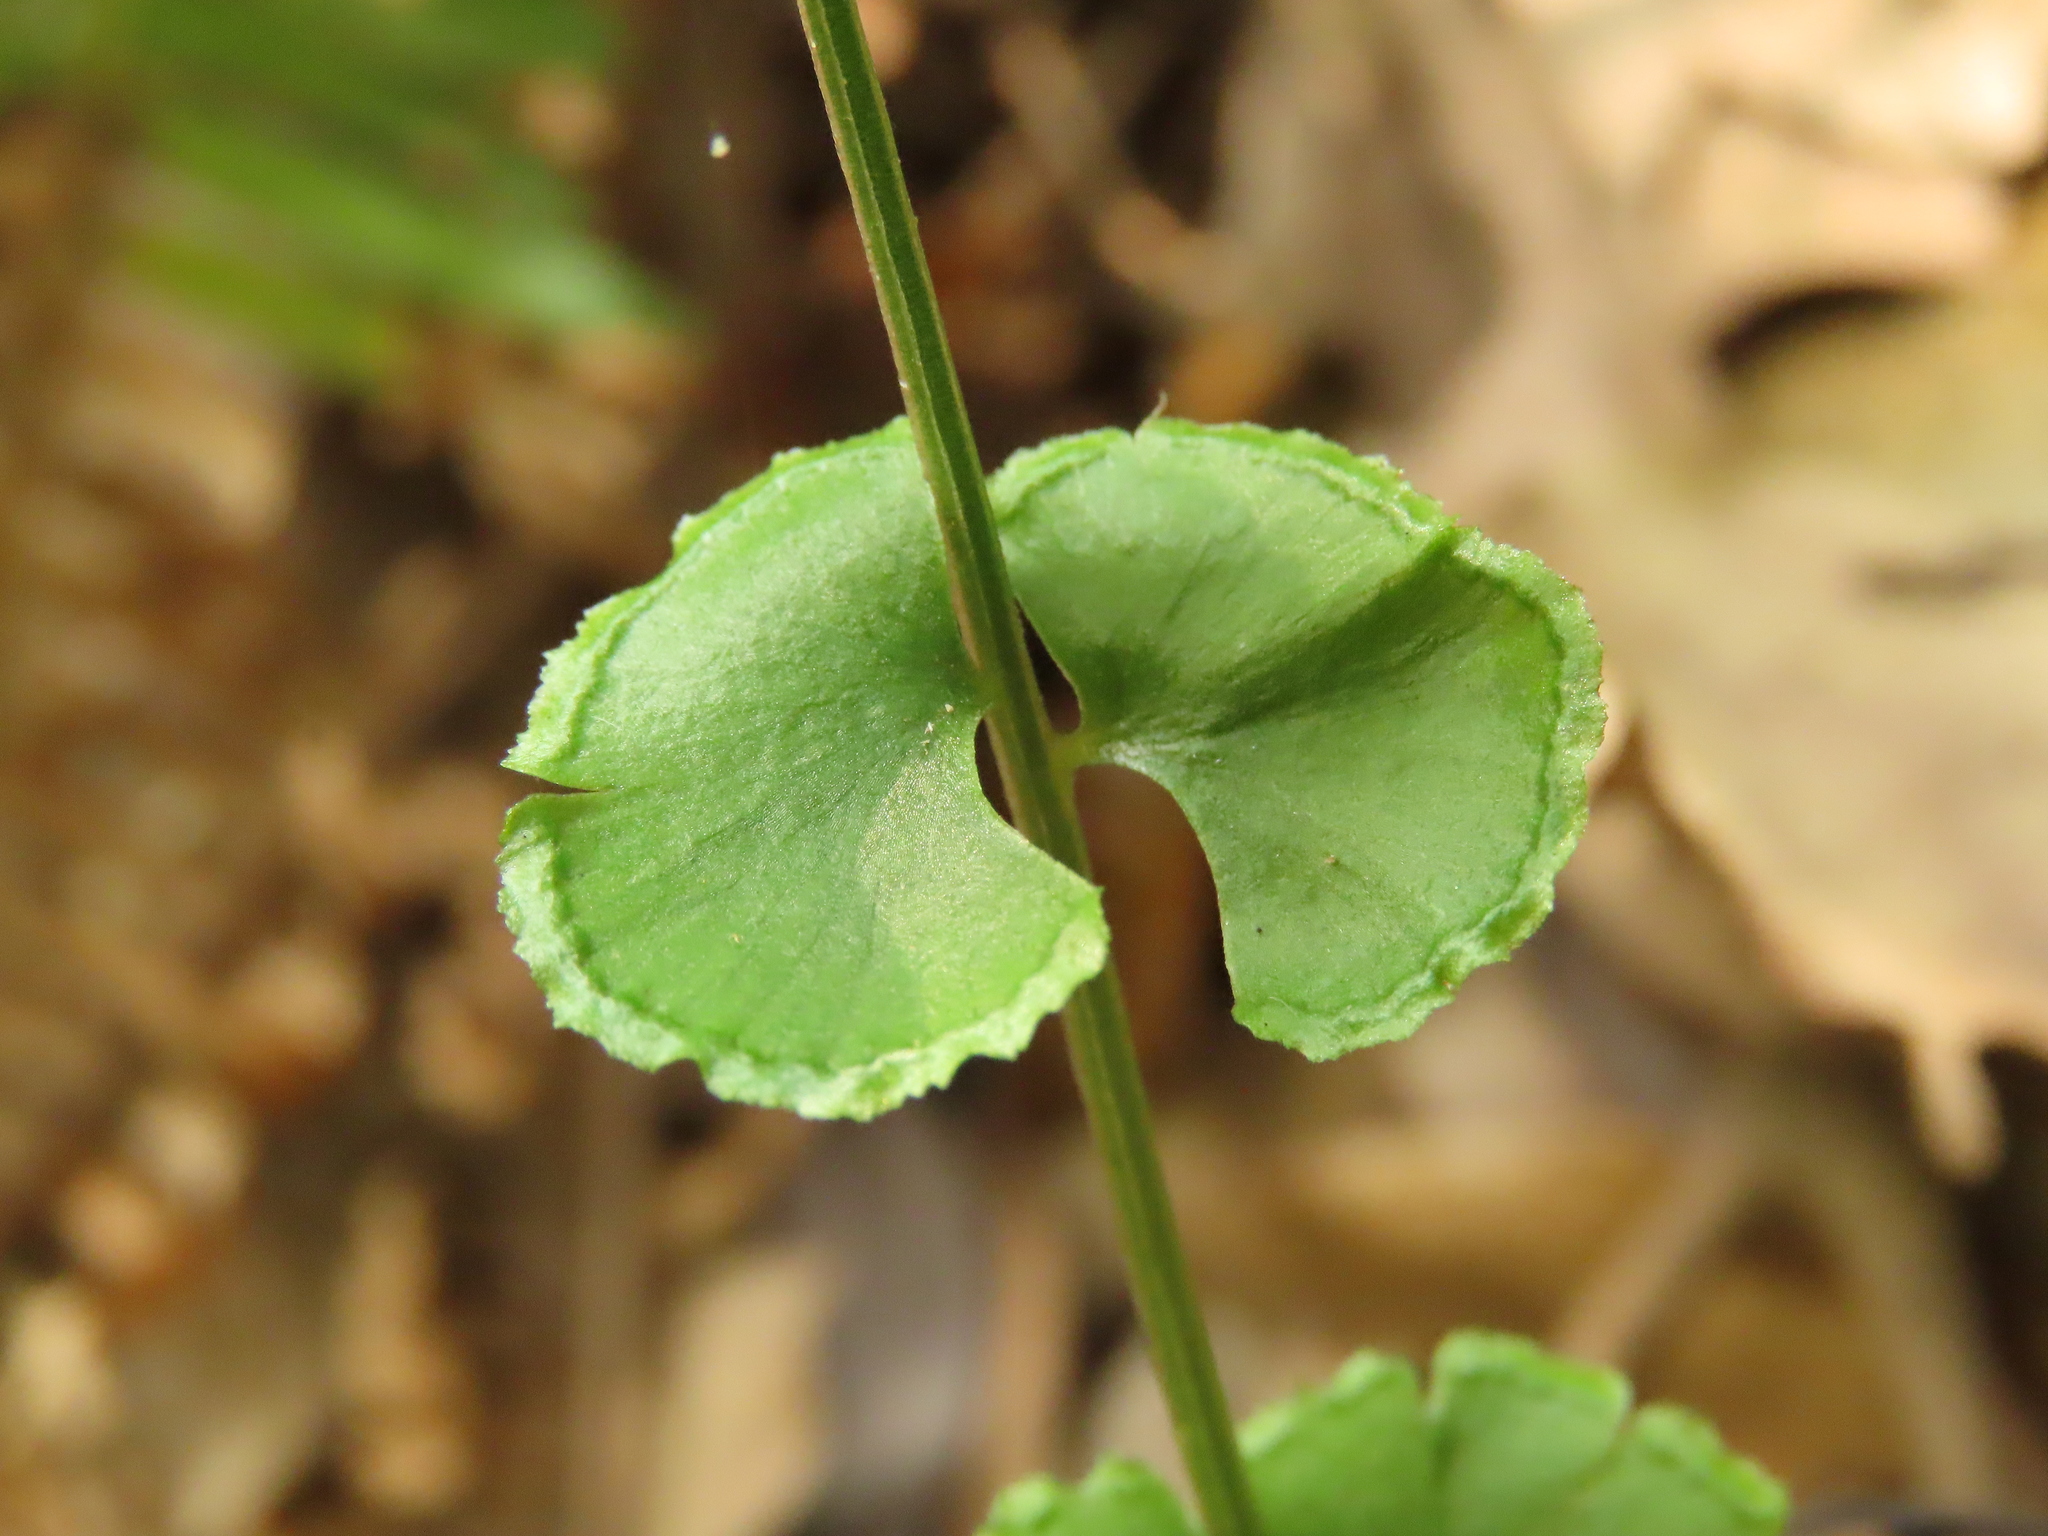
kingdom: Plantae
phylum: Tracheophyta
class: Polypodiopsida
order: Polypodiales
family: Lindsaeaceae
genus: Lindsaea
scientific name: Lindsaea orbiculata
